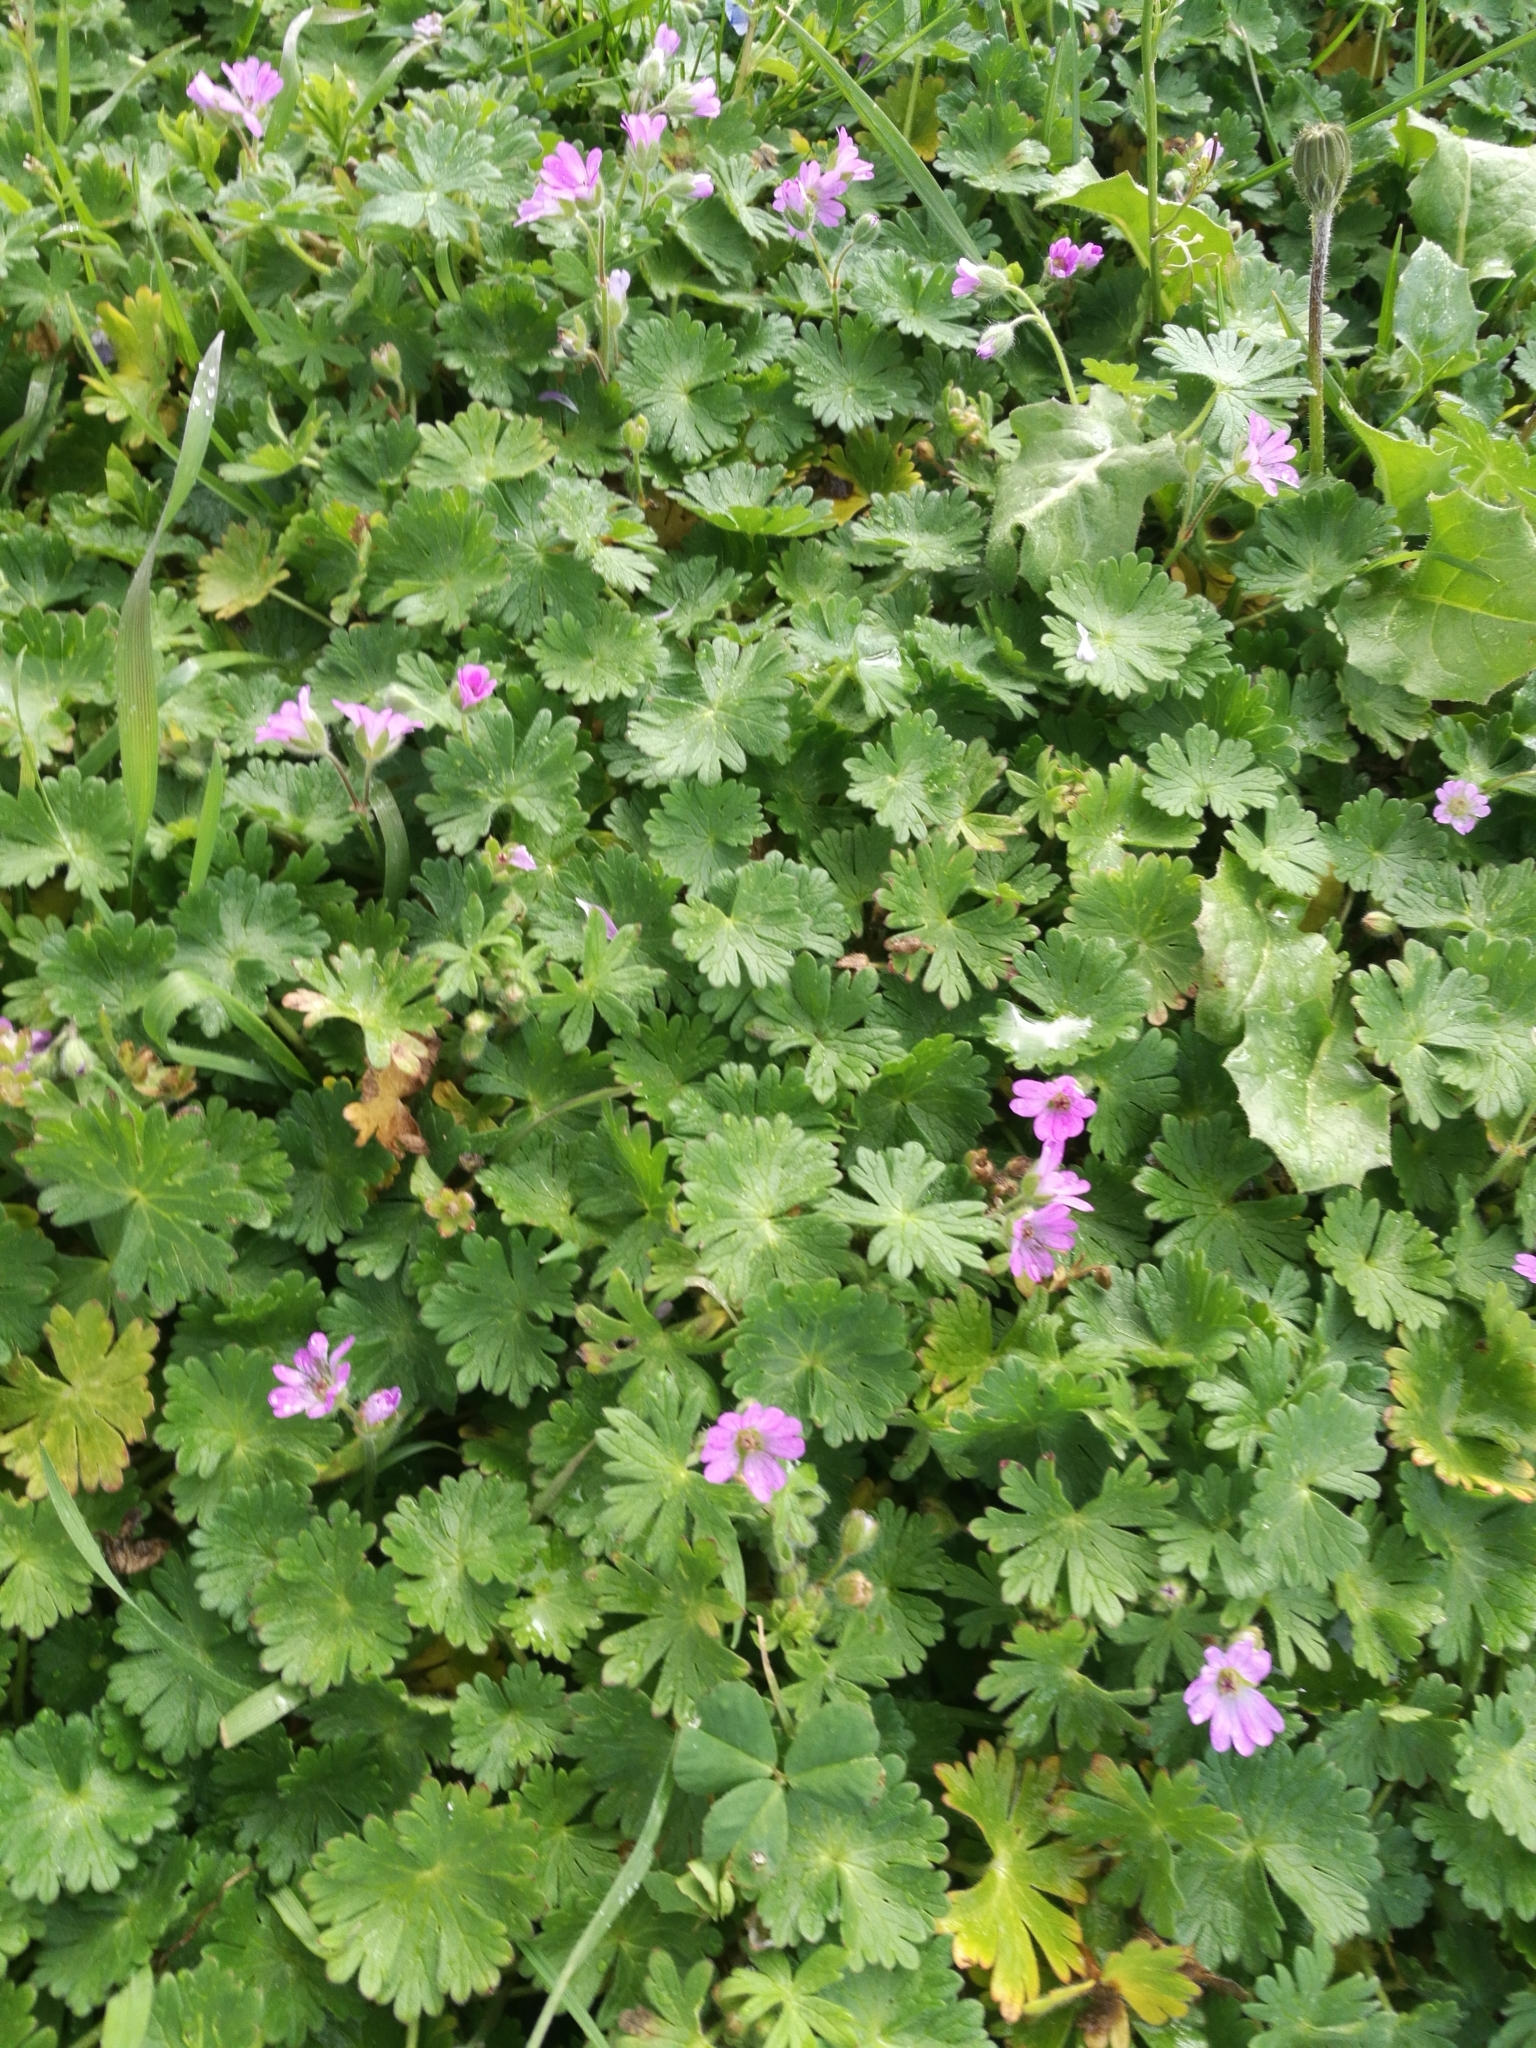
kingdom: Plantae
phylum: Tracheophyta
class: Magnoliopsida
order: Geraniales
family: Geraniaceae
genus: Geranium
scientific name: Geranium molle
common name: Dove's-foot crane's-bill
